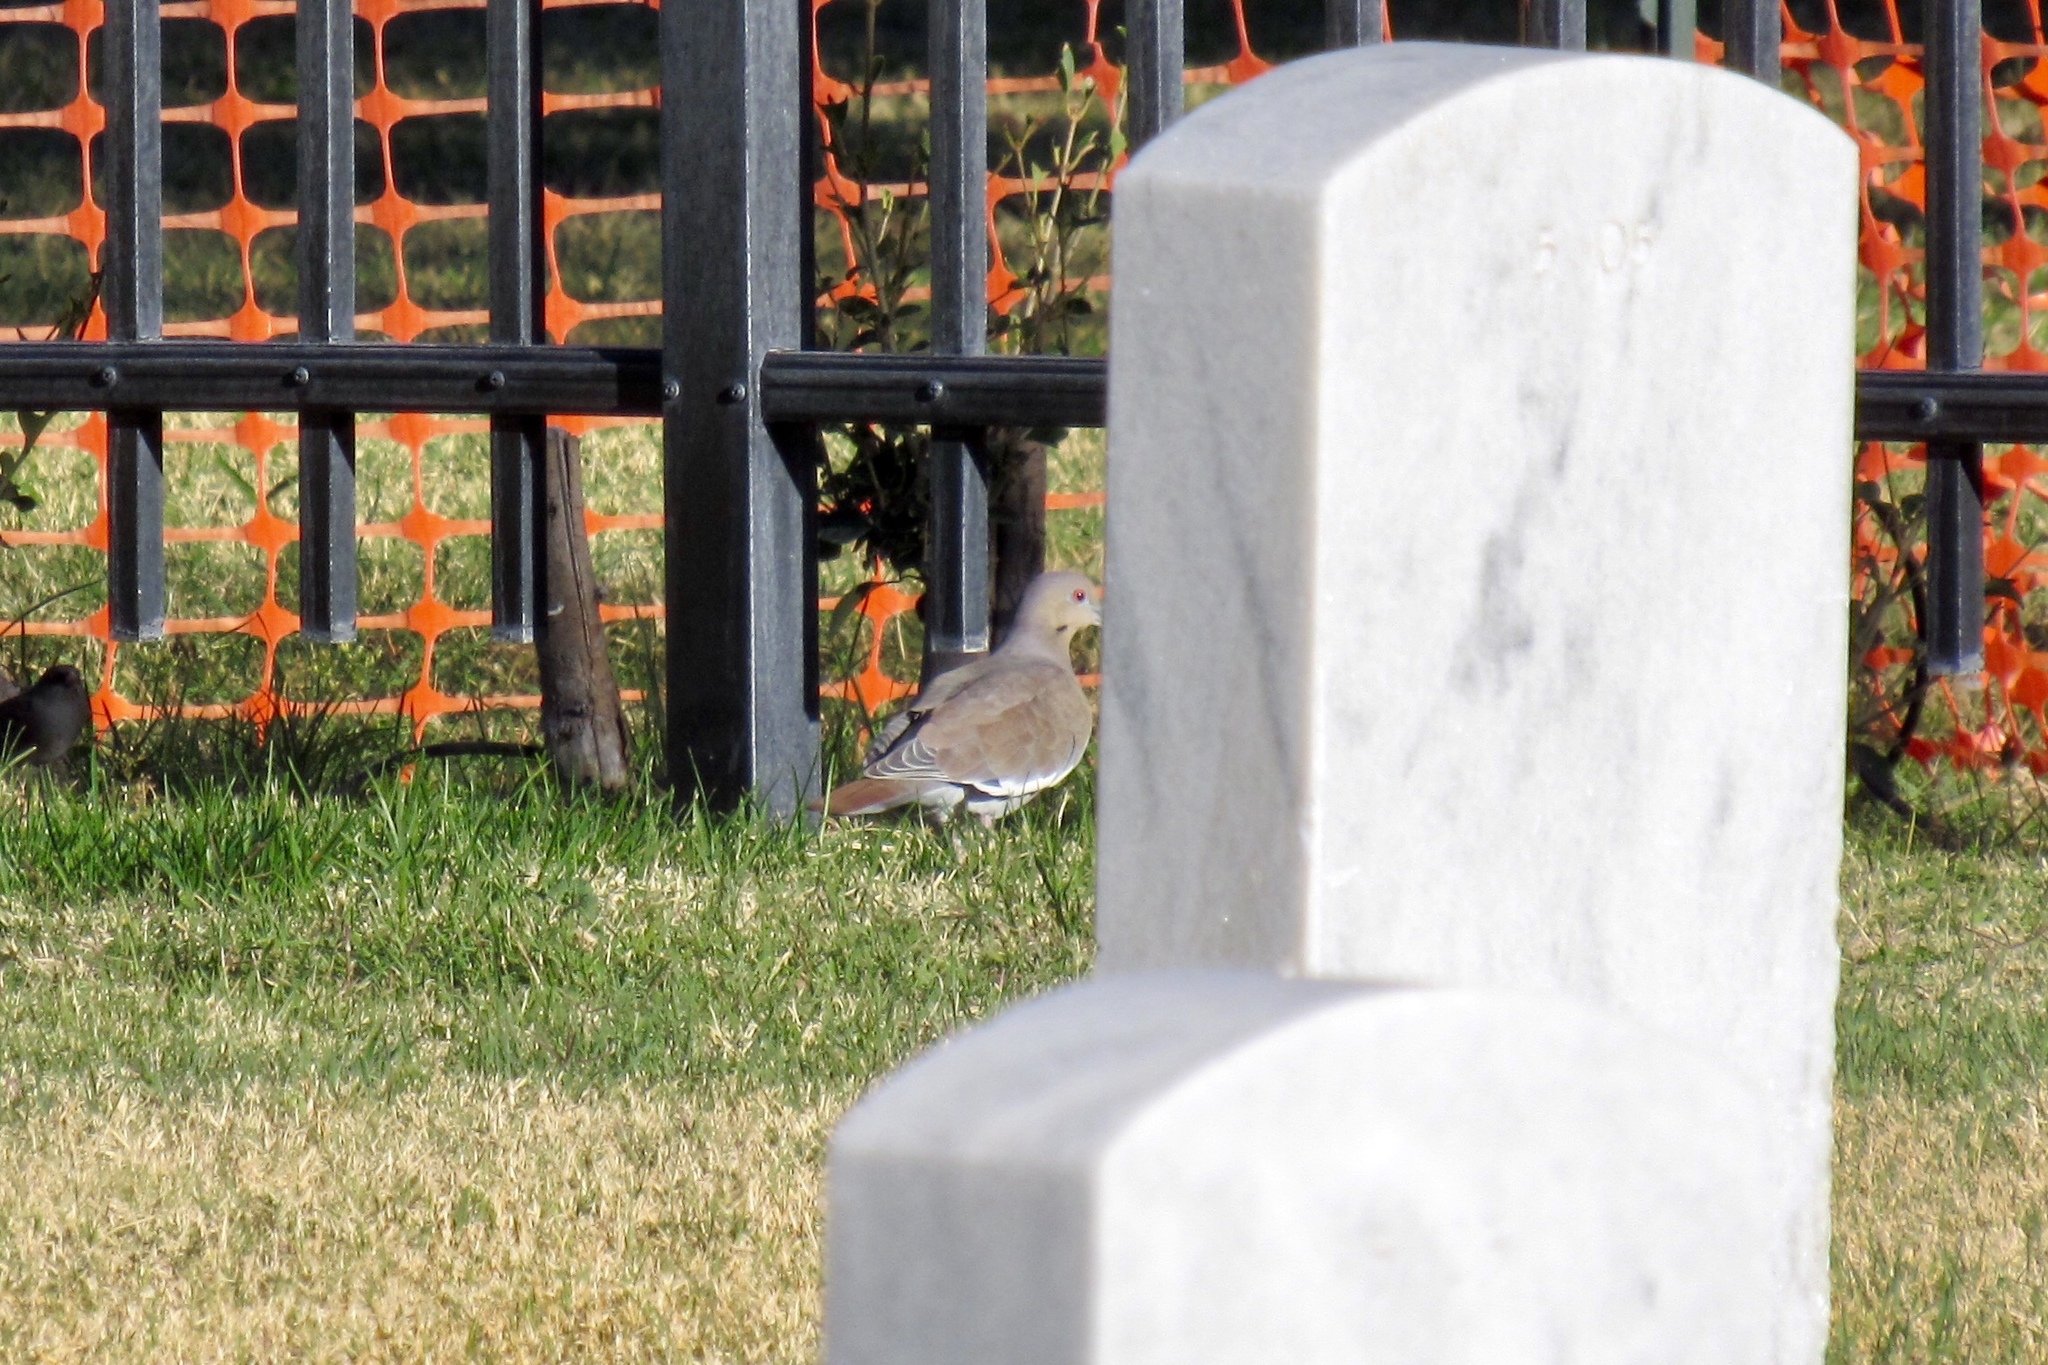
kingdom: Animalia
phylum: Chordata
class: Aves
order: Columbiformes
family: Columbidae
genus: Zenaida
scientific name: Zenaida asiatica
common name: White-winged dove
